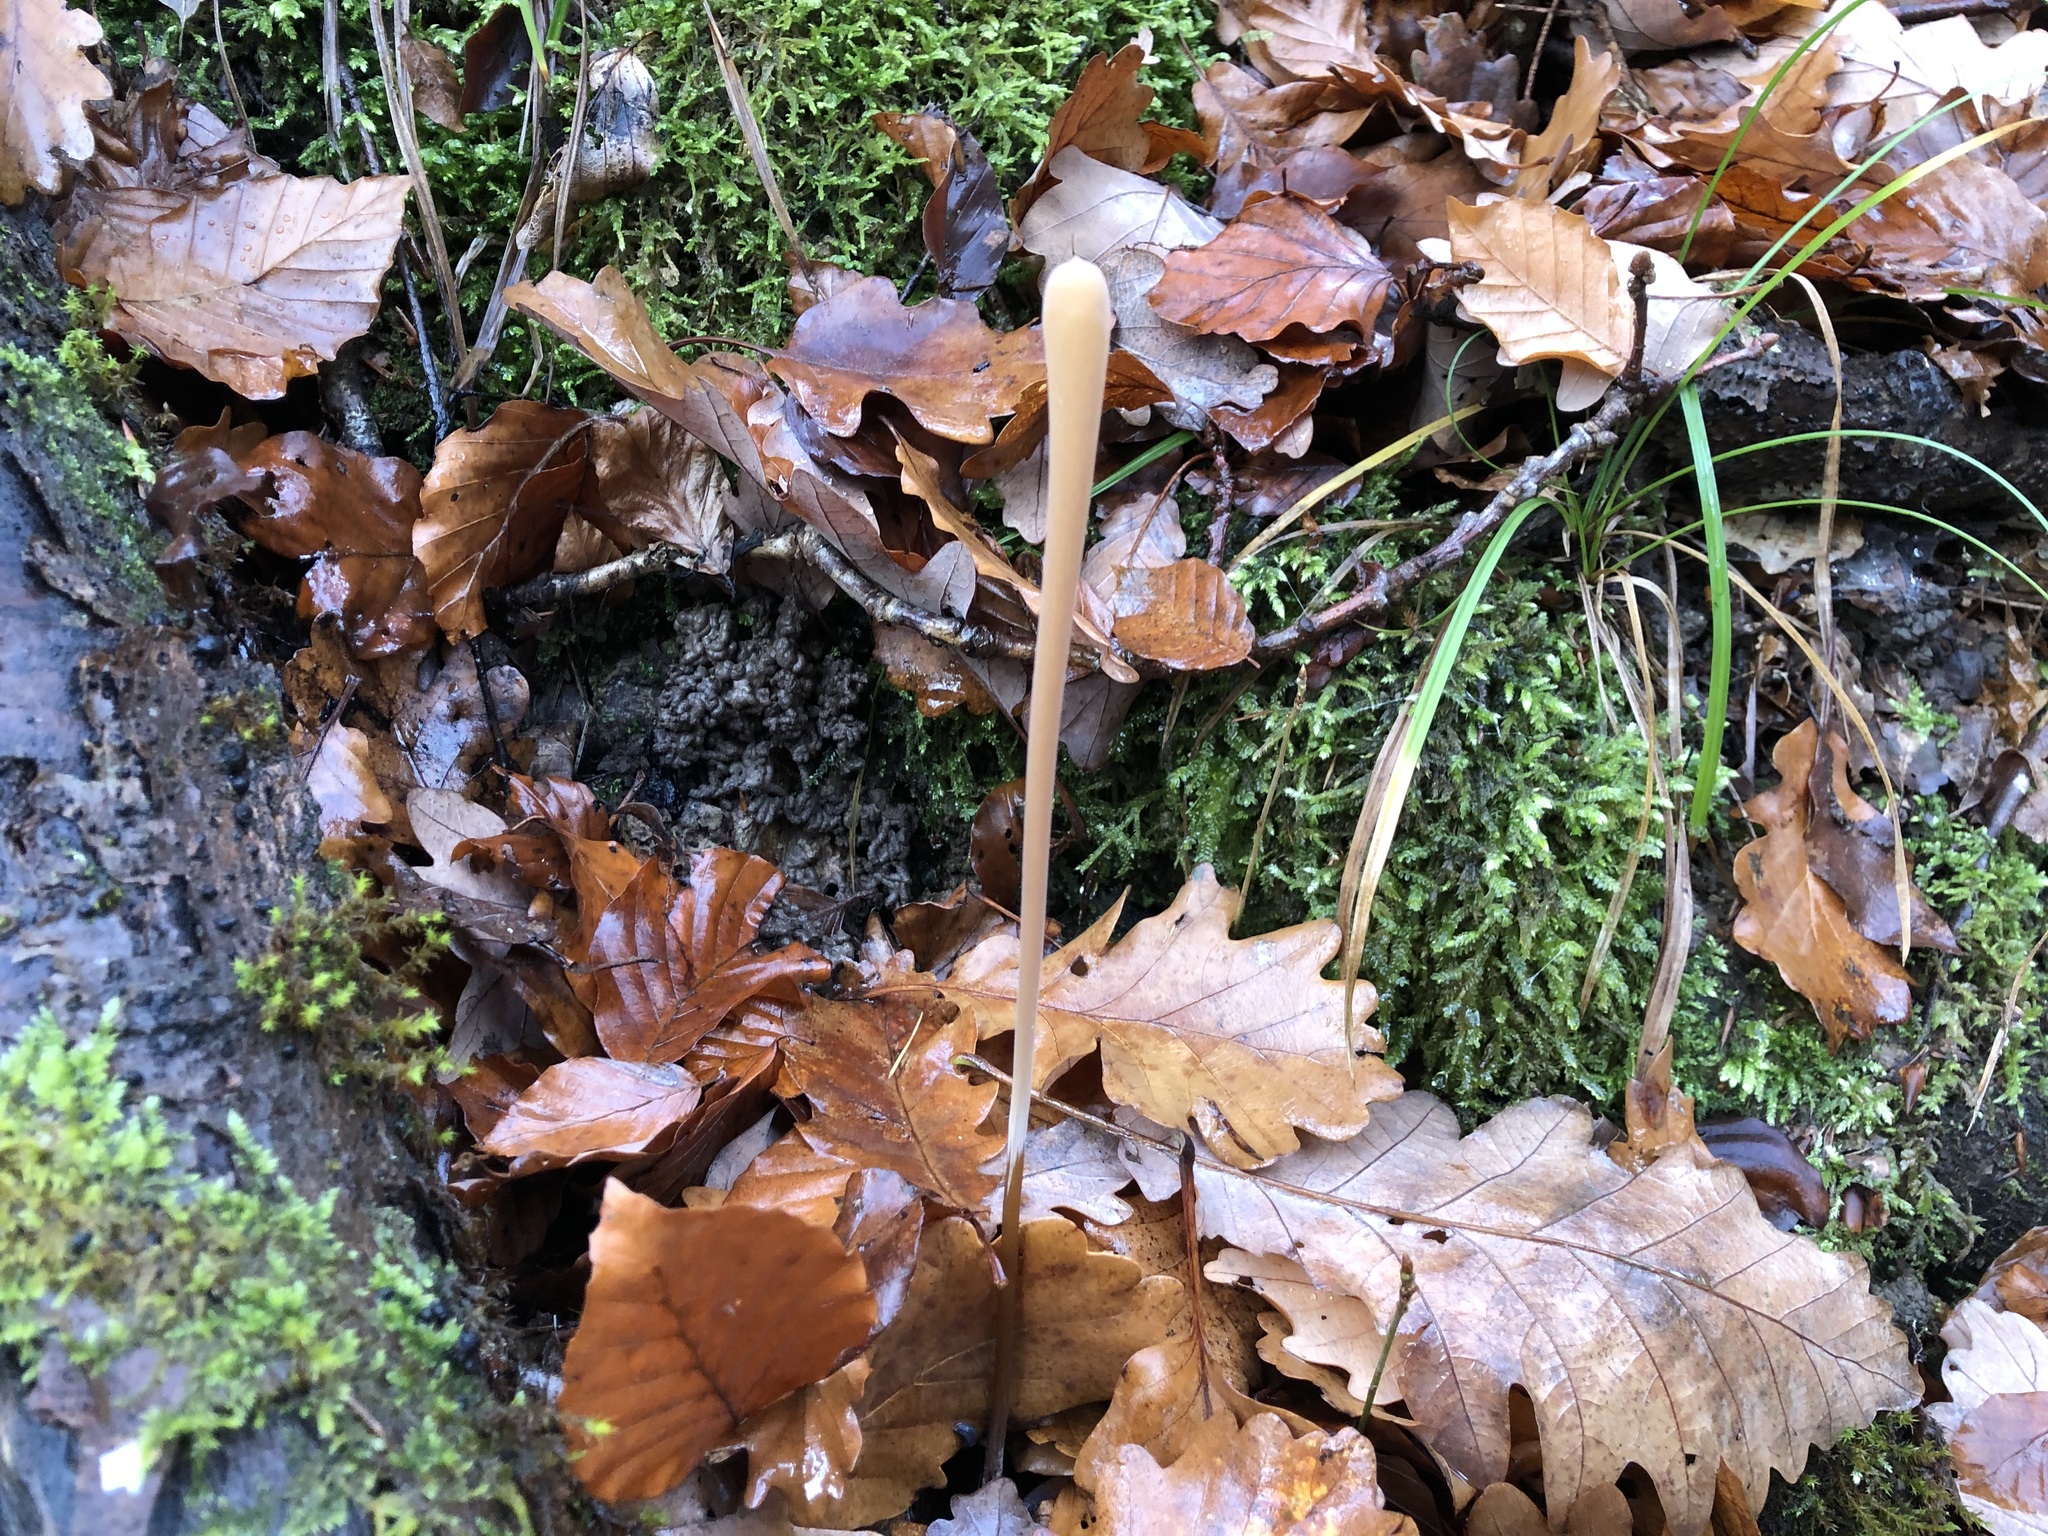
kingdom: Fungi
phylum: Basidiomycota
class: Agaricomycetes
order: Agaricales
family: Typhulaceae
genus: Typhula
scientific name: Typhula fistulosa
